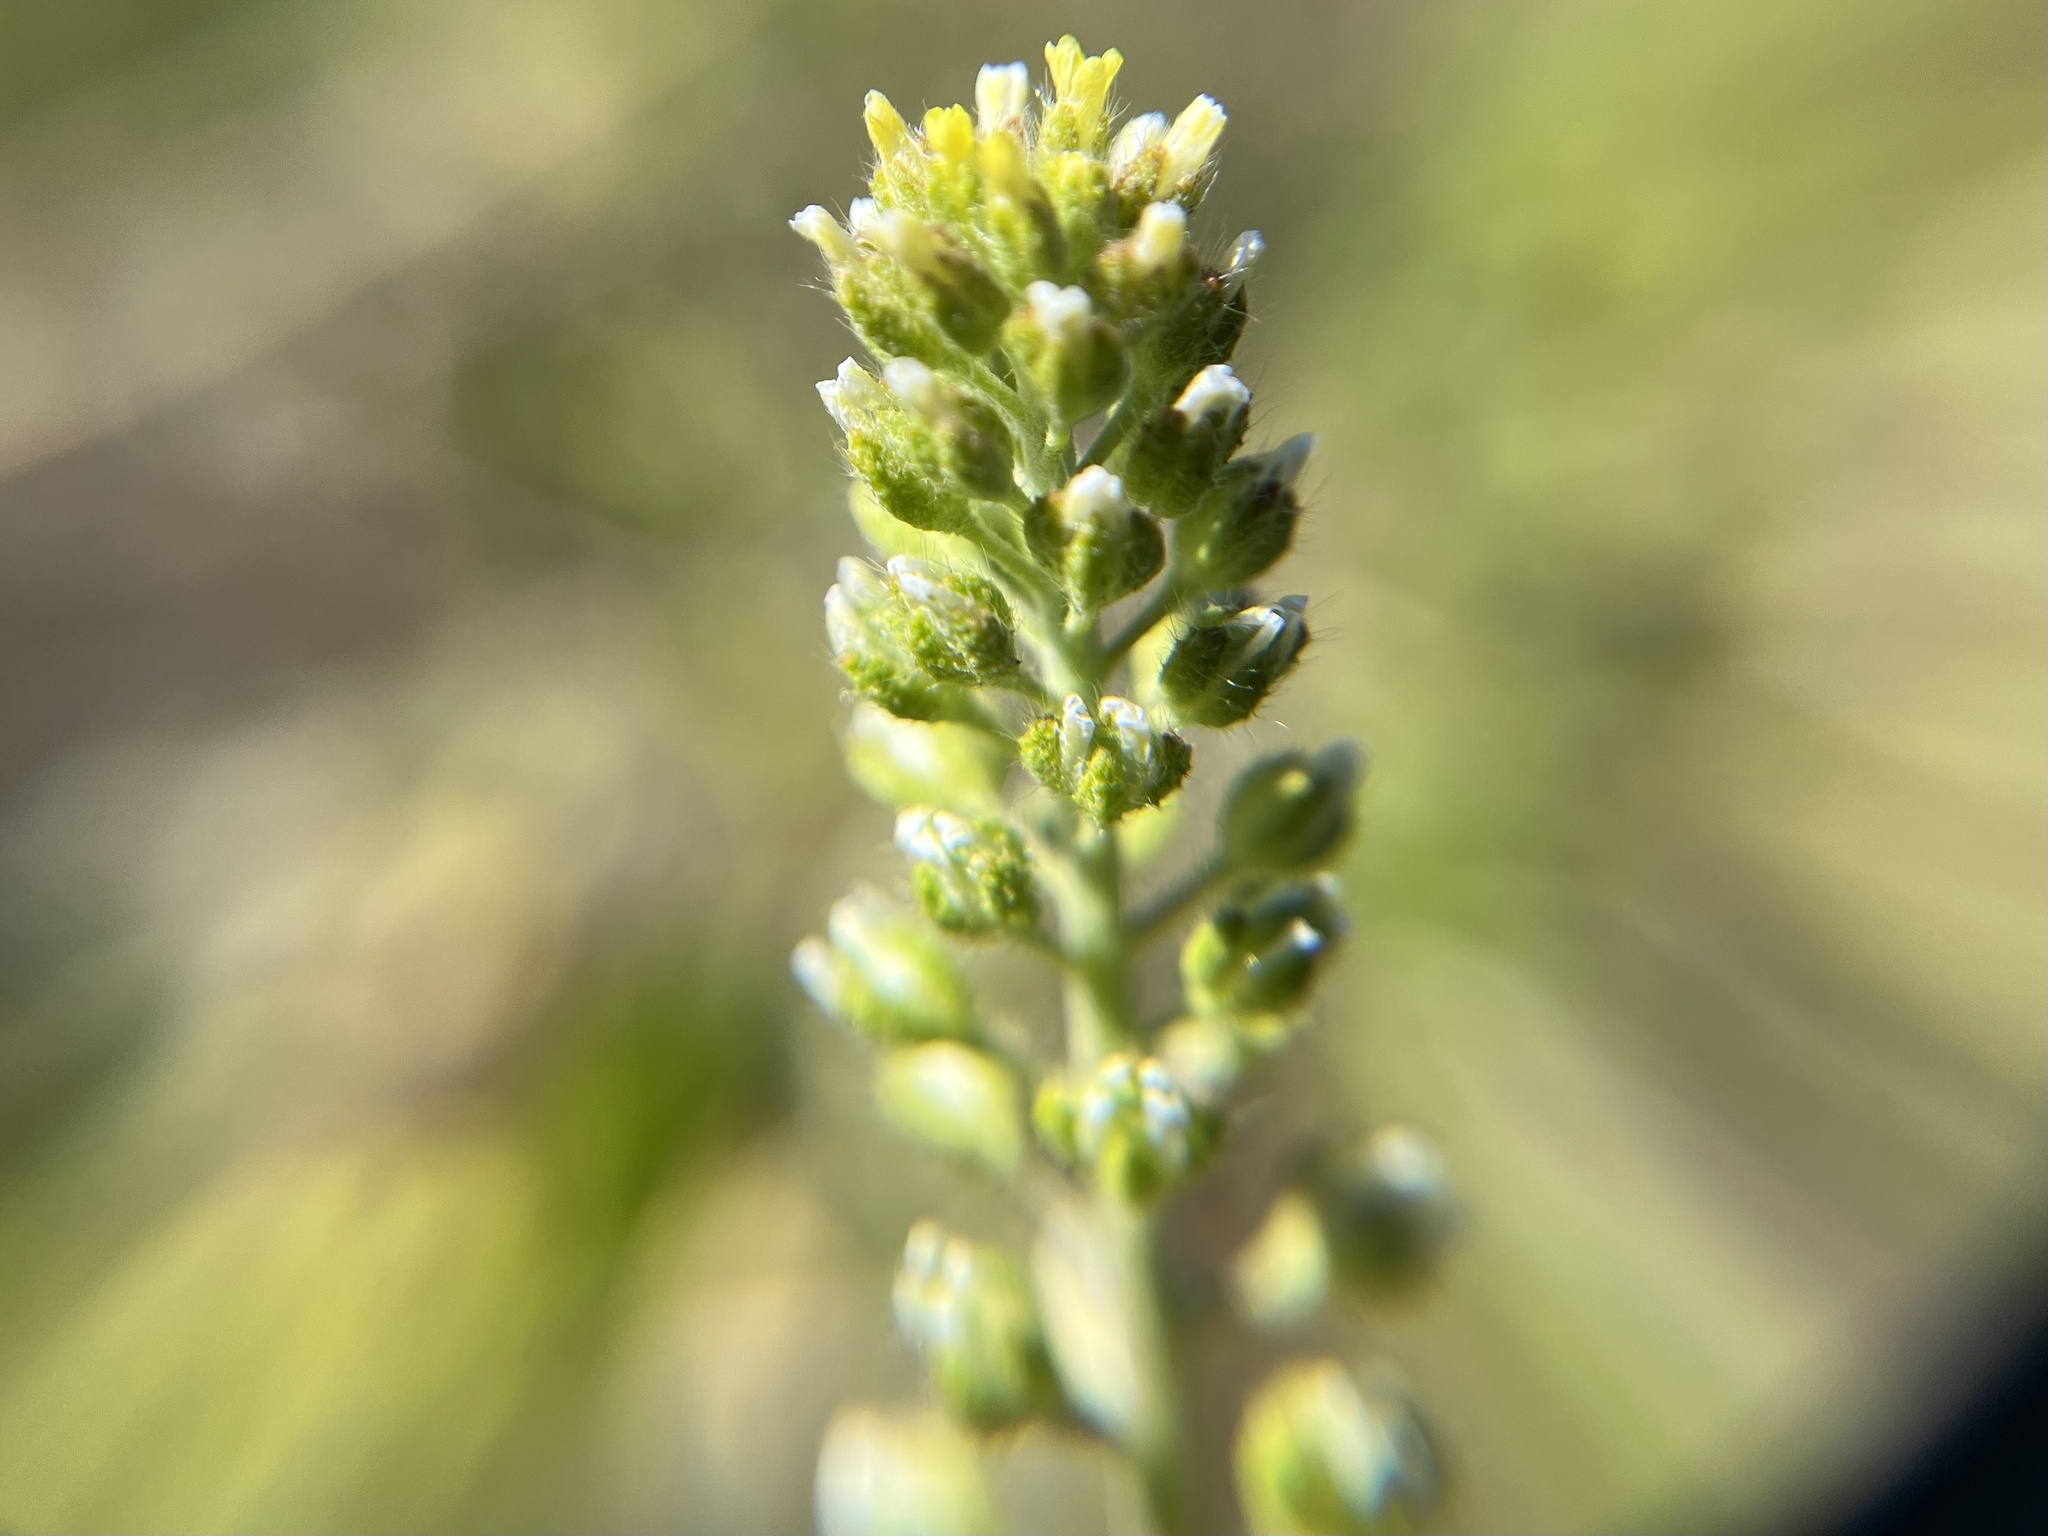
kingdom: Plantae
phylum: Tracheophyta
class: Magnoliopsida
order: Brassicales
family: Brassicaceae
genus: Alyssum
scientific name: Alyssum alyssoides
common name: Small alison
